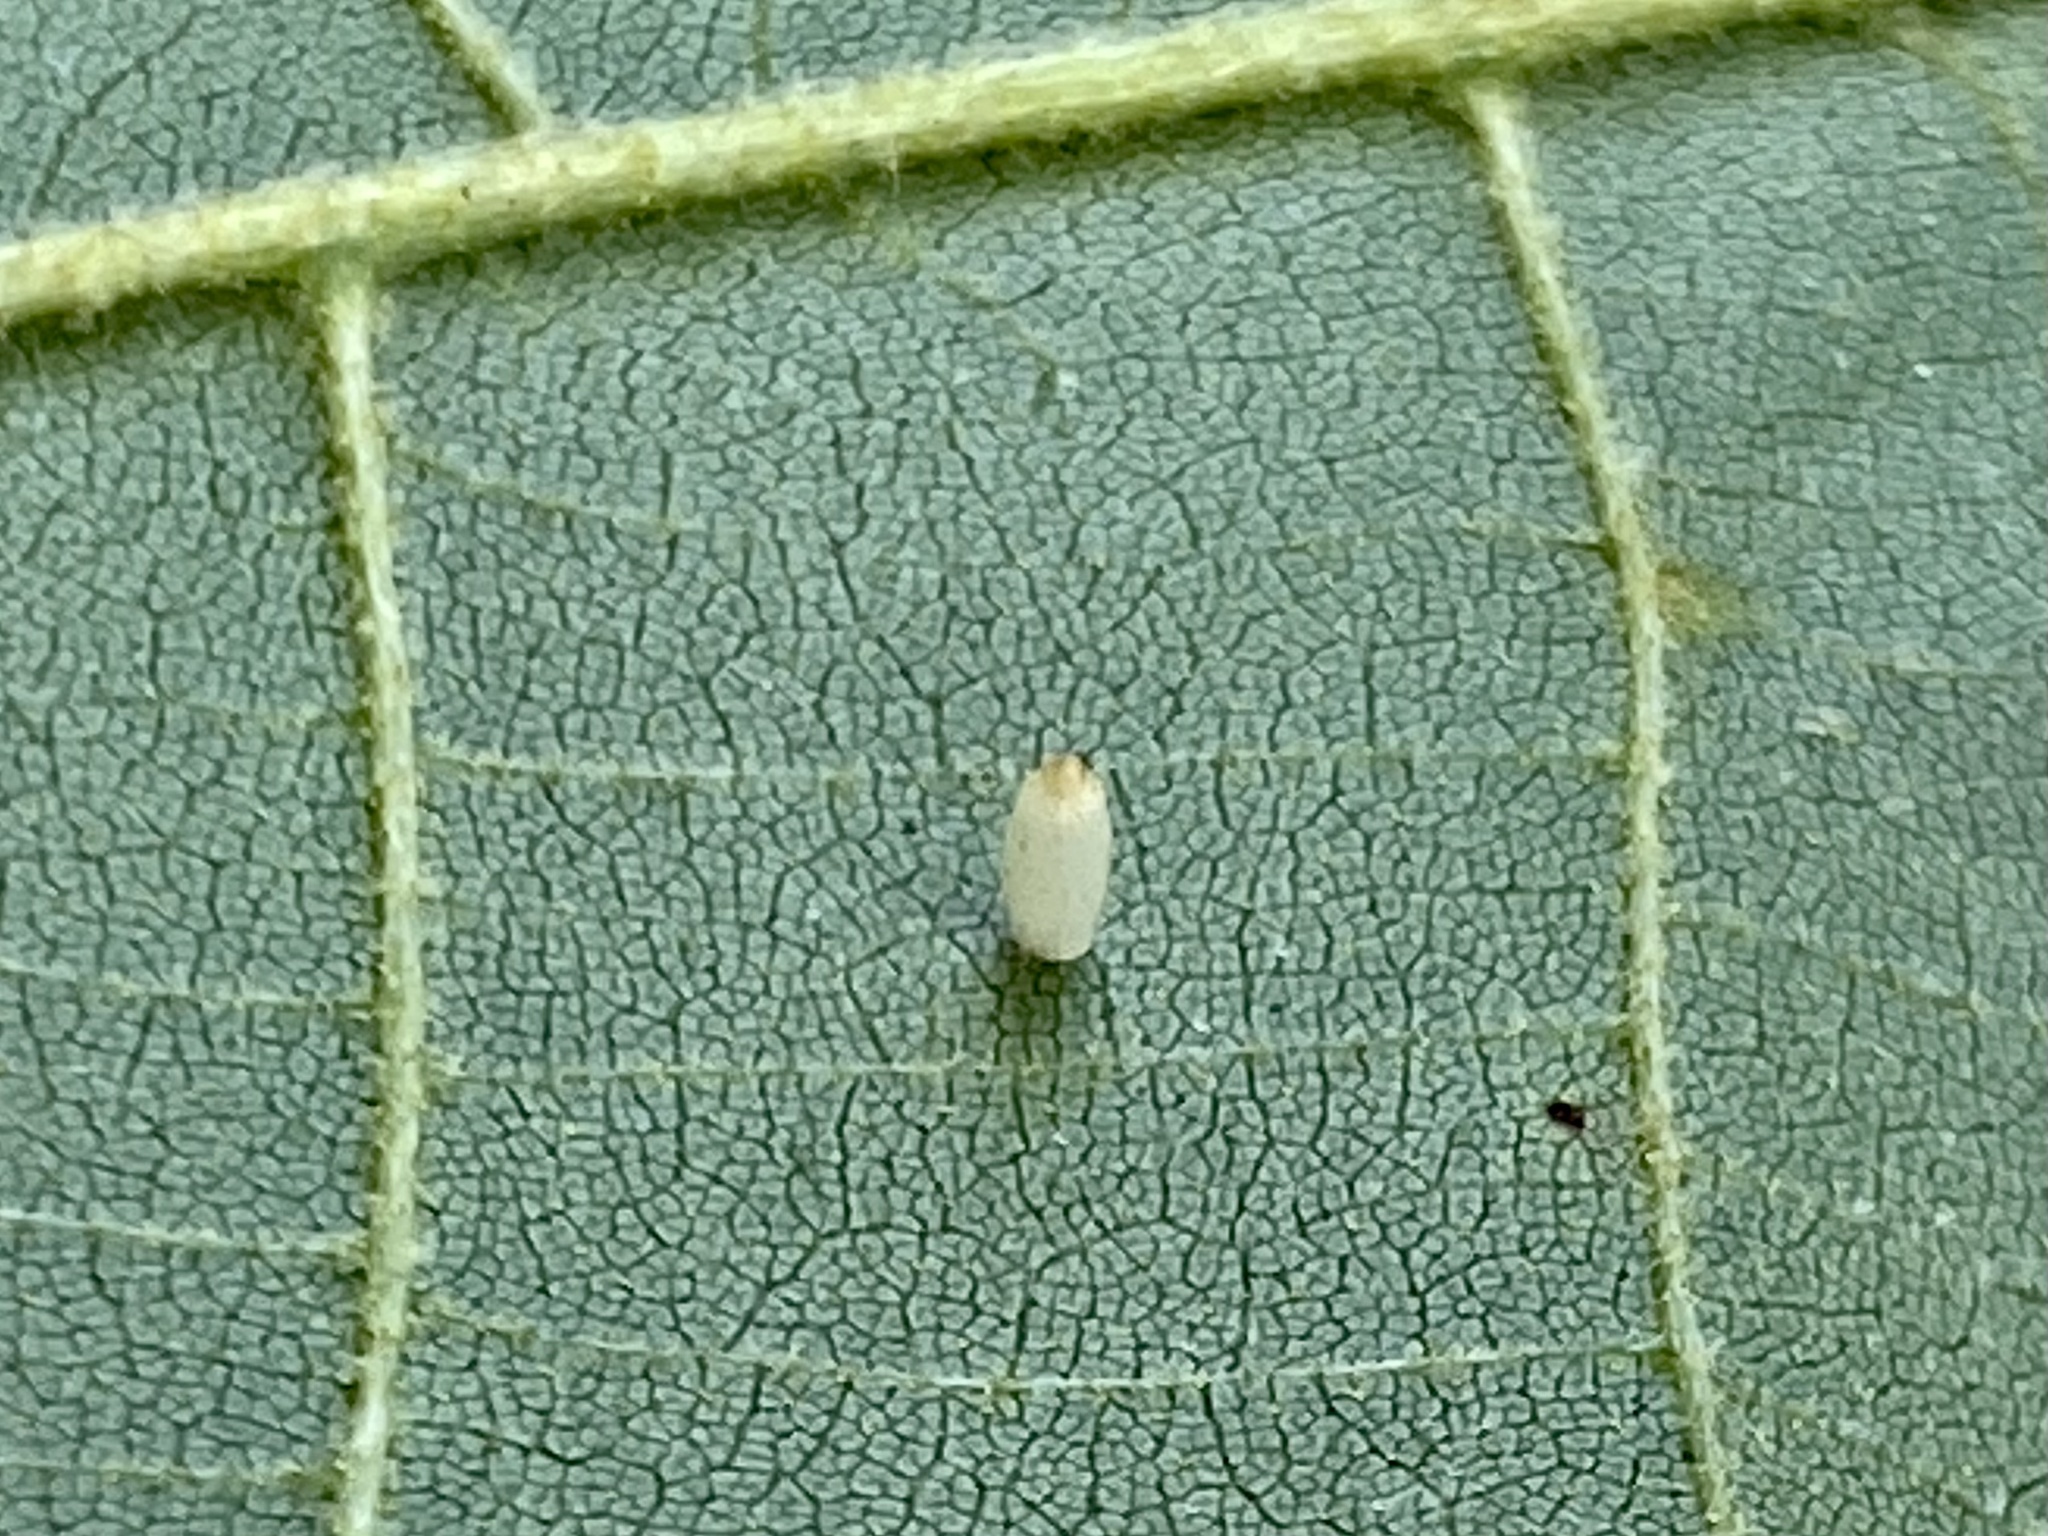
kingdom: Animalia
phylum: Arthropoda
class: Insecta
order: Diptera
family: Cecidomyiidae
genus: Caryomyia
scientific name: Caryomyia urnula
